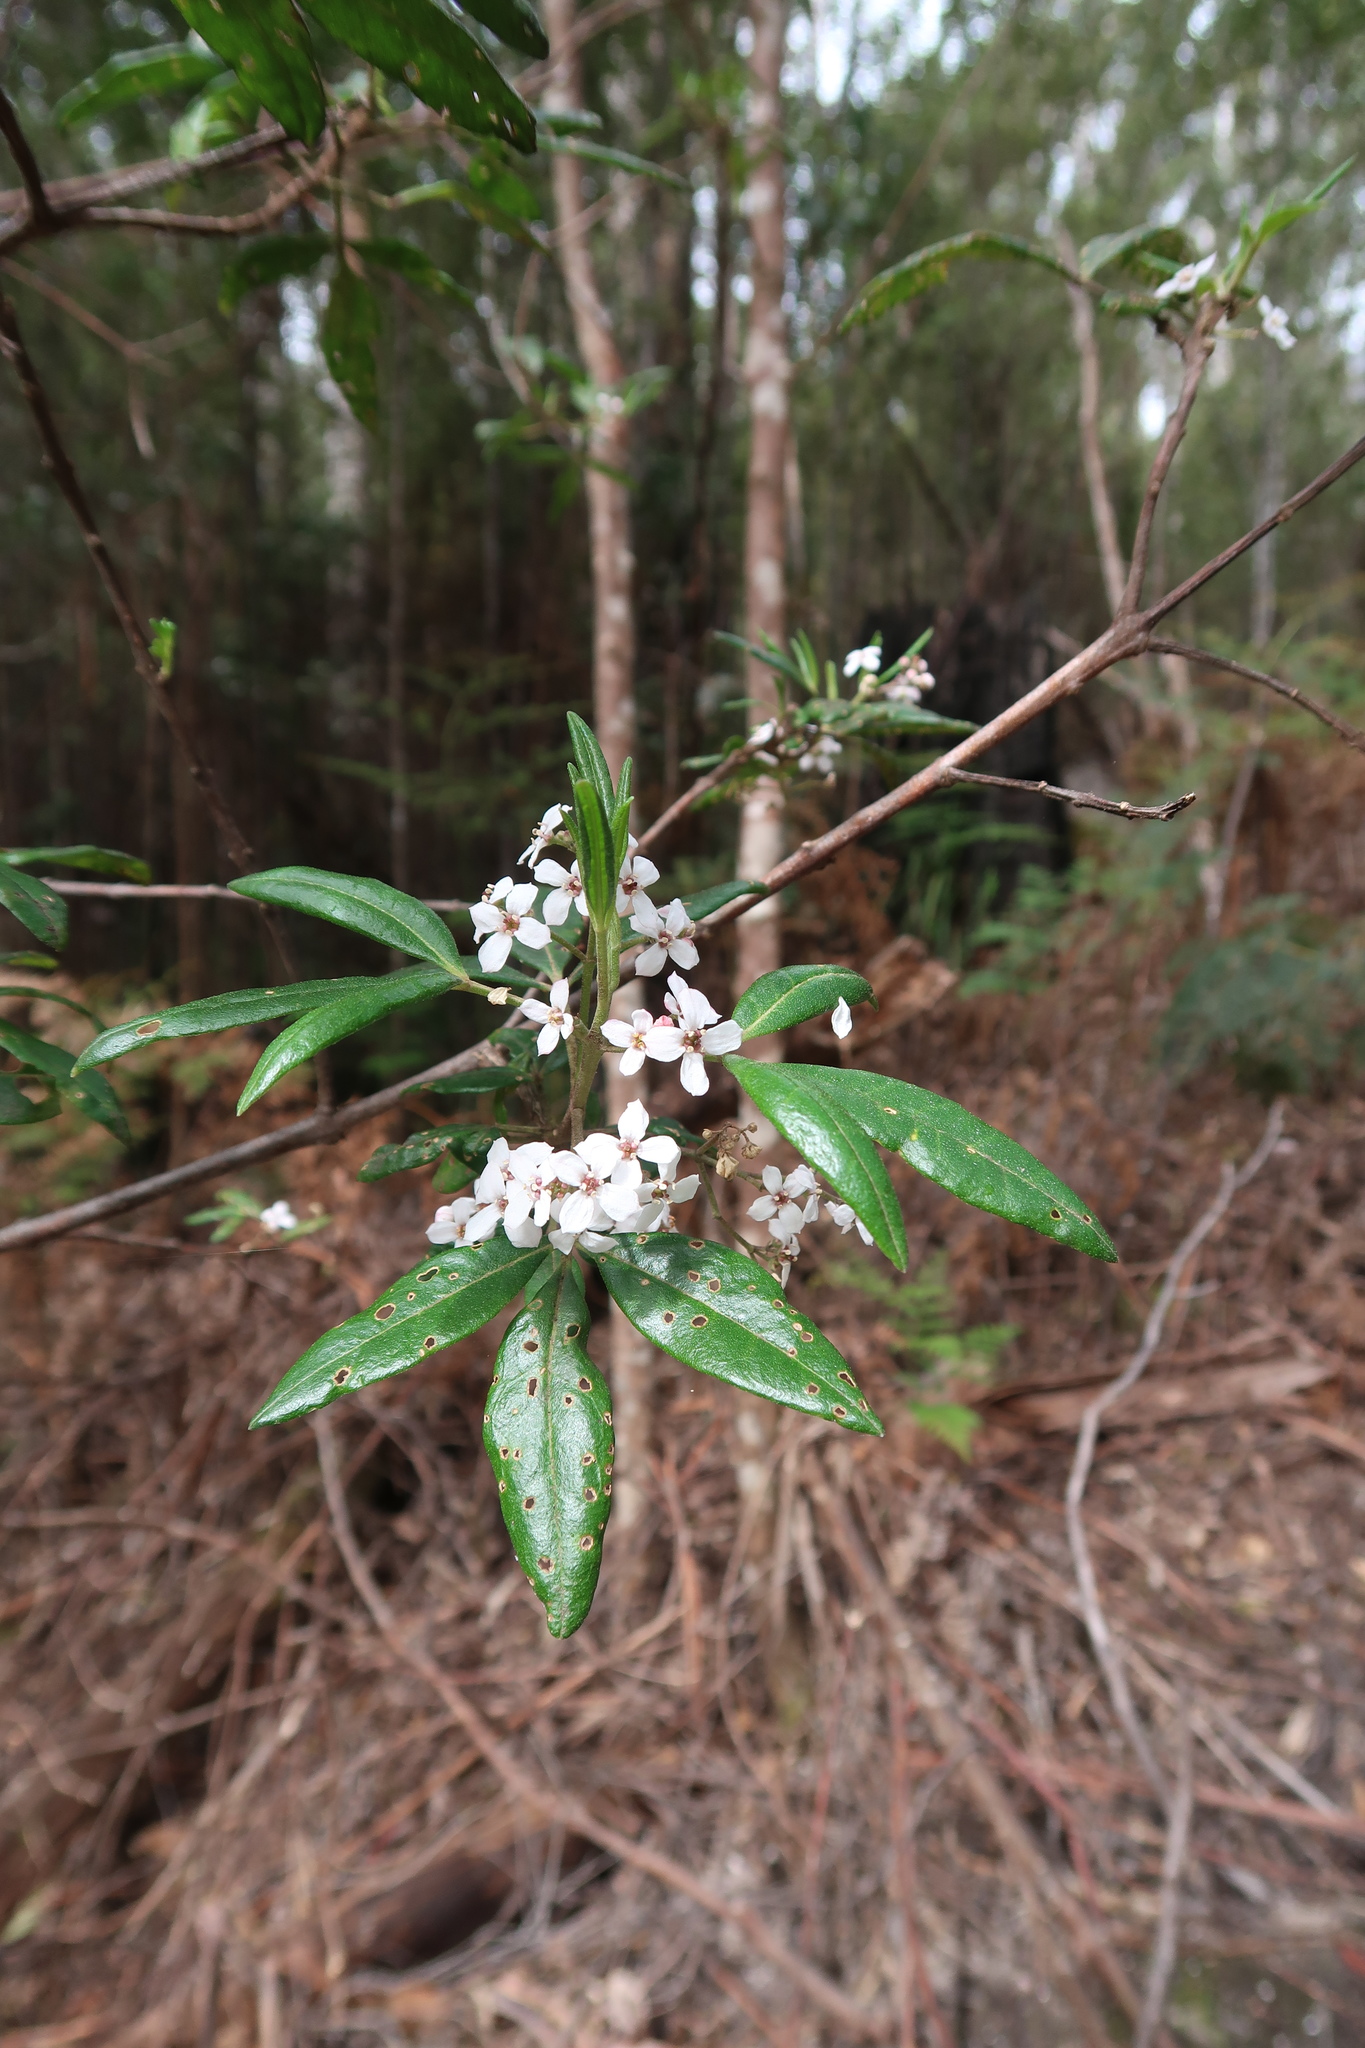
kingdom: Plantae
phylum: Tracheophyta
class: Magnoliopsida
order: Sapindales
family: Rutaceae
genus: Zieria
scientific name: Zieria arborescens
